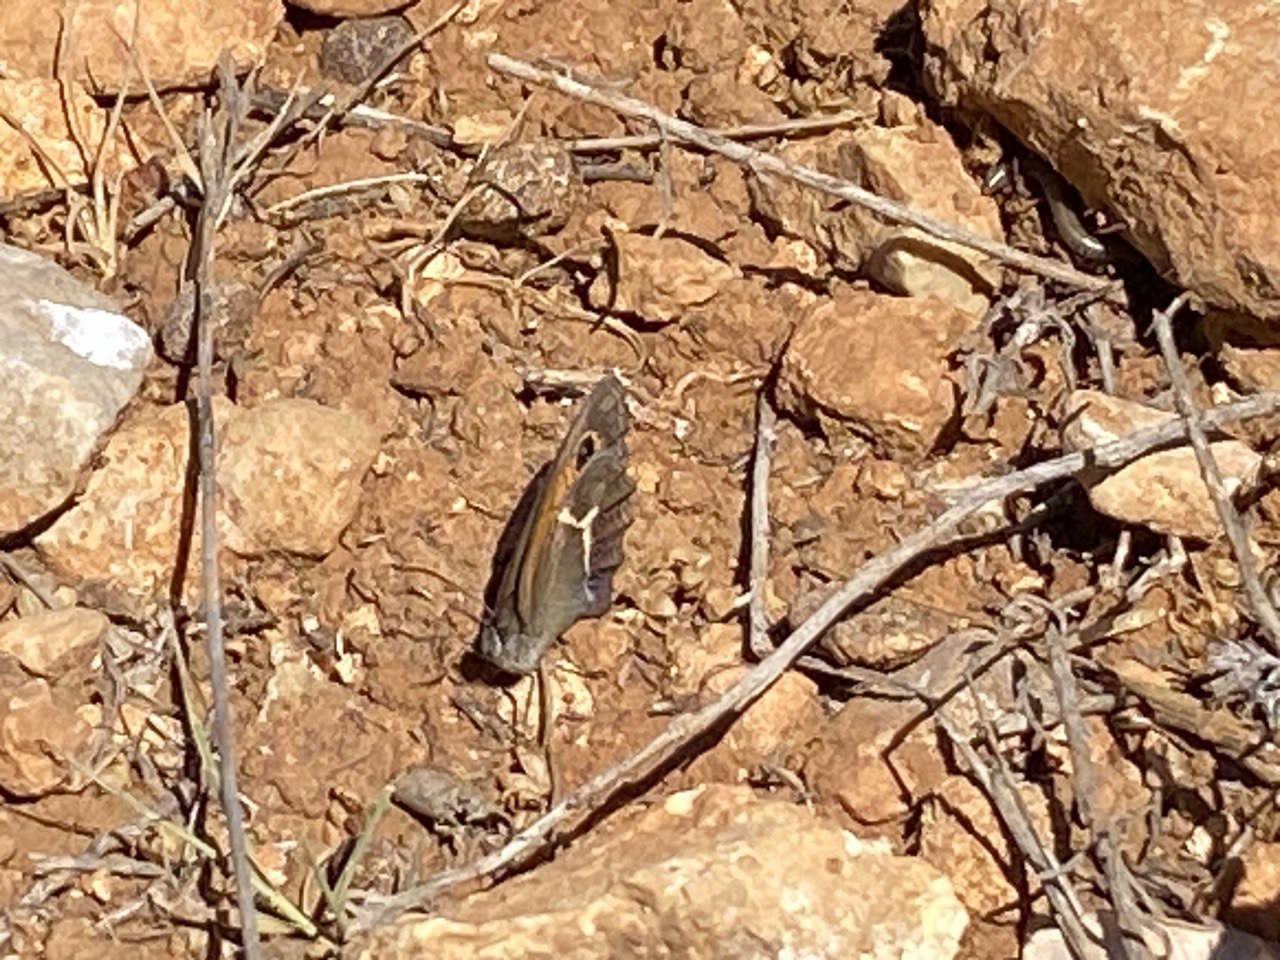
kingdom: Animalia
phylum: Arthropoda
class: Insecta
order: Lepidoptera
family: Nymphalidae
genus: Pyronia
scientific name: Pyronia bathseba
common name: Spanish gatekeeper
